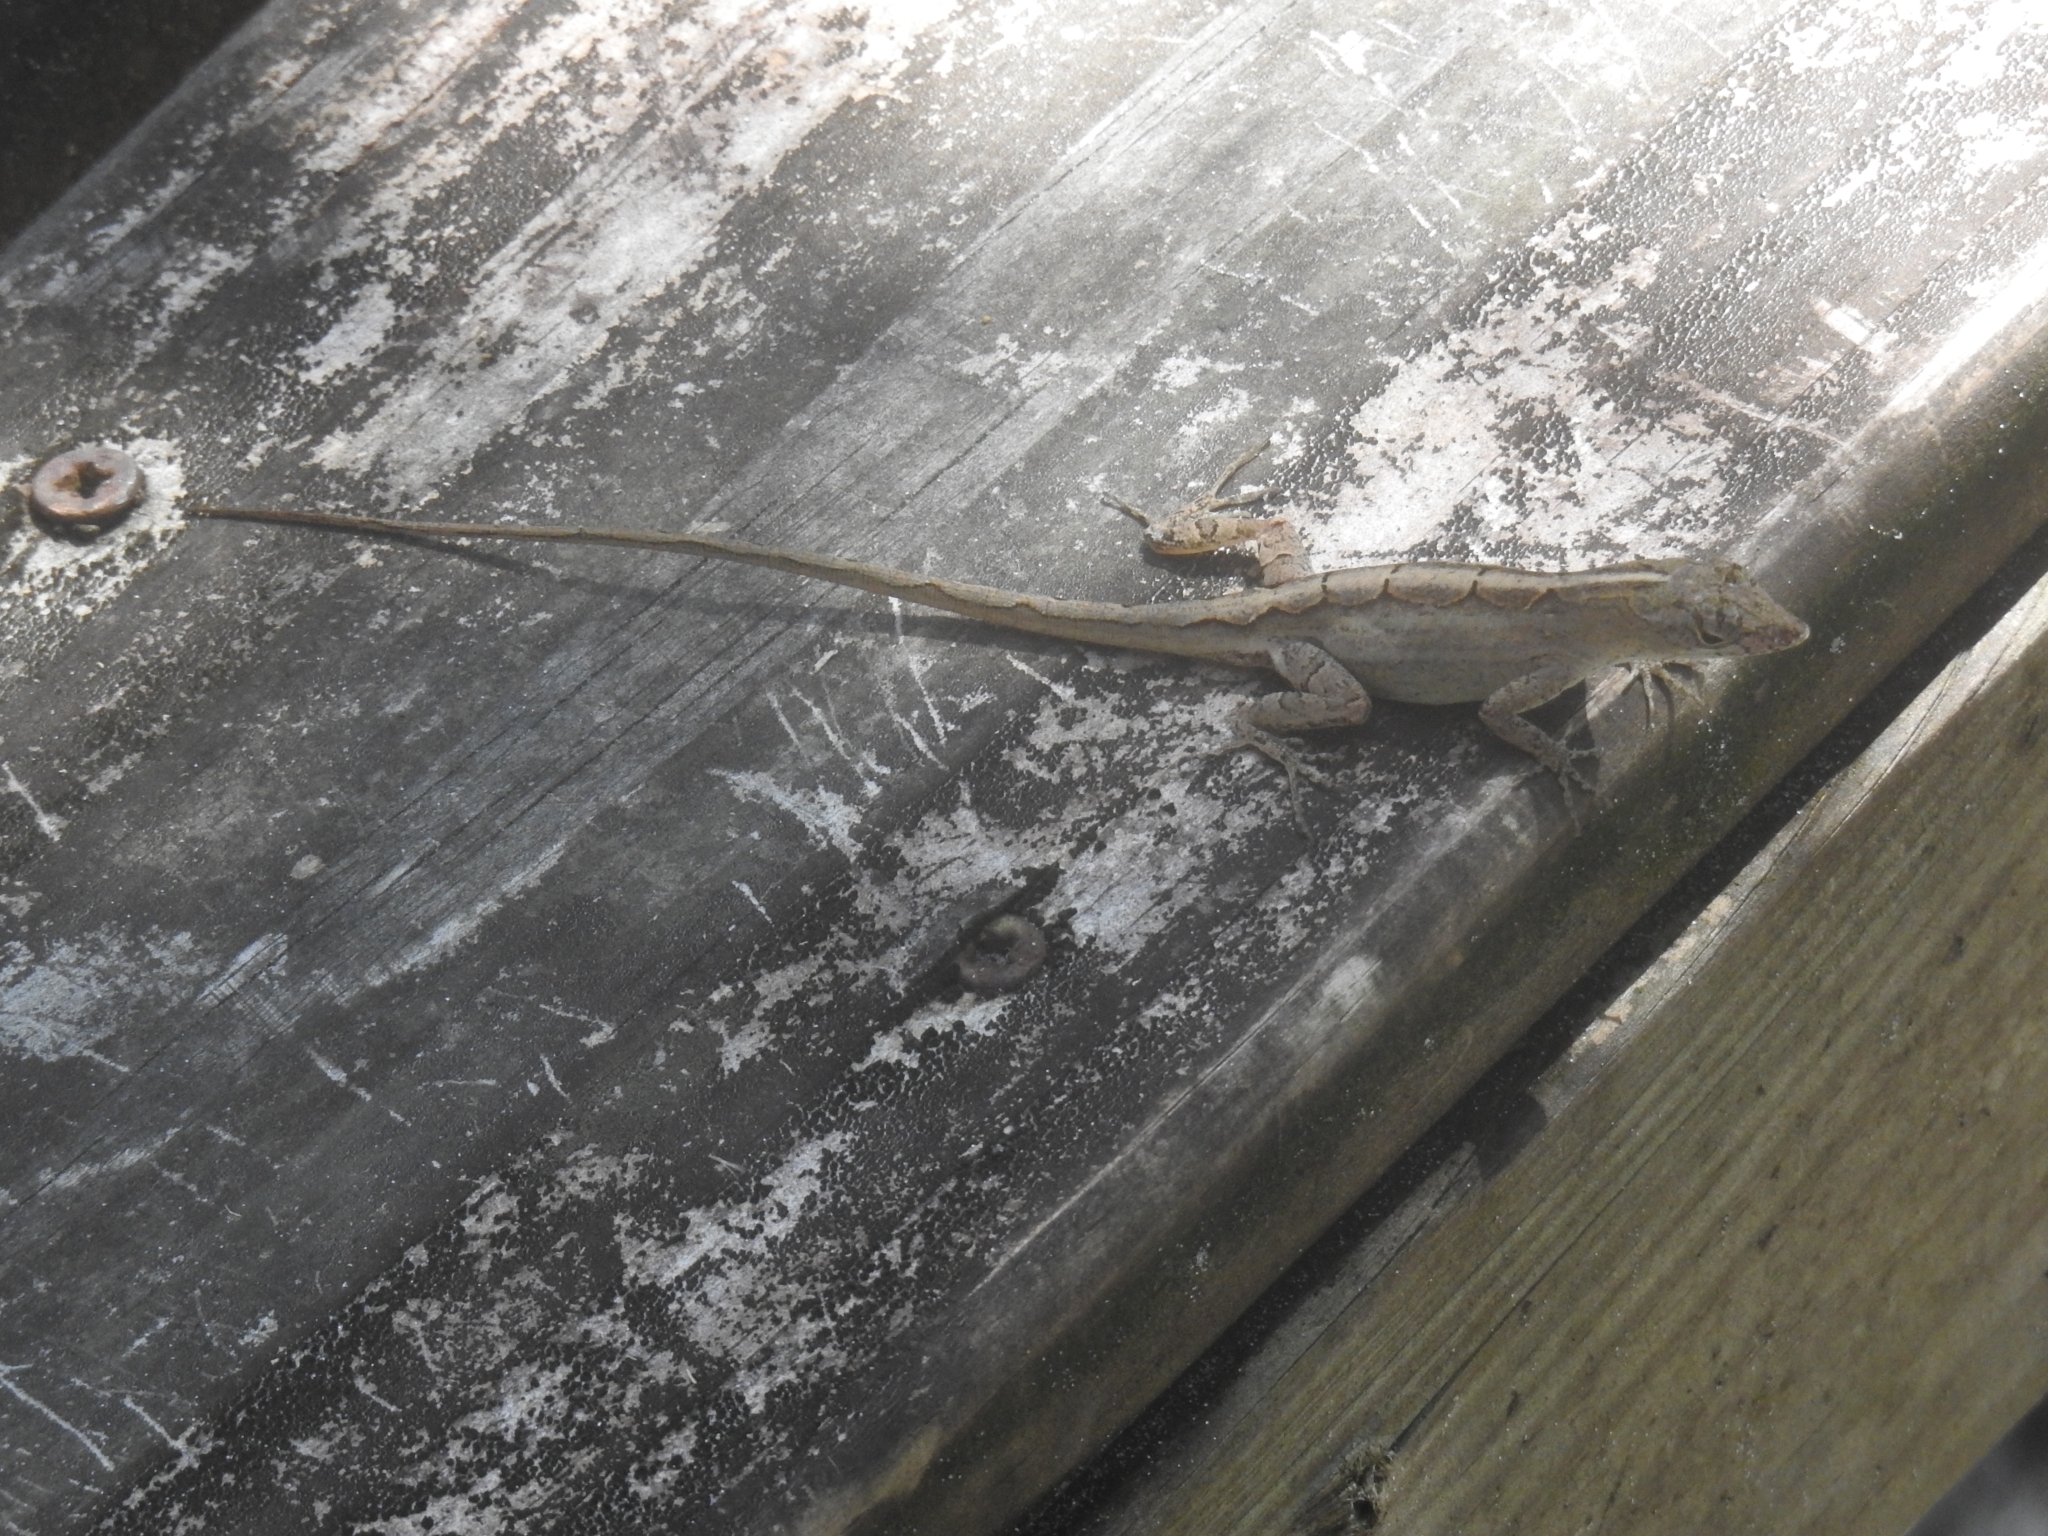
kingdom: Animalia
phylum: Chordata
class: Squamata
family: Dactyloidae
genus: Anolis
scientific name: Anolis sagrei
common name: Brown anole
